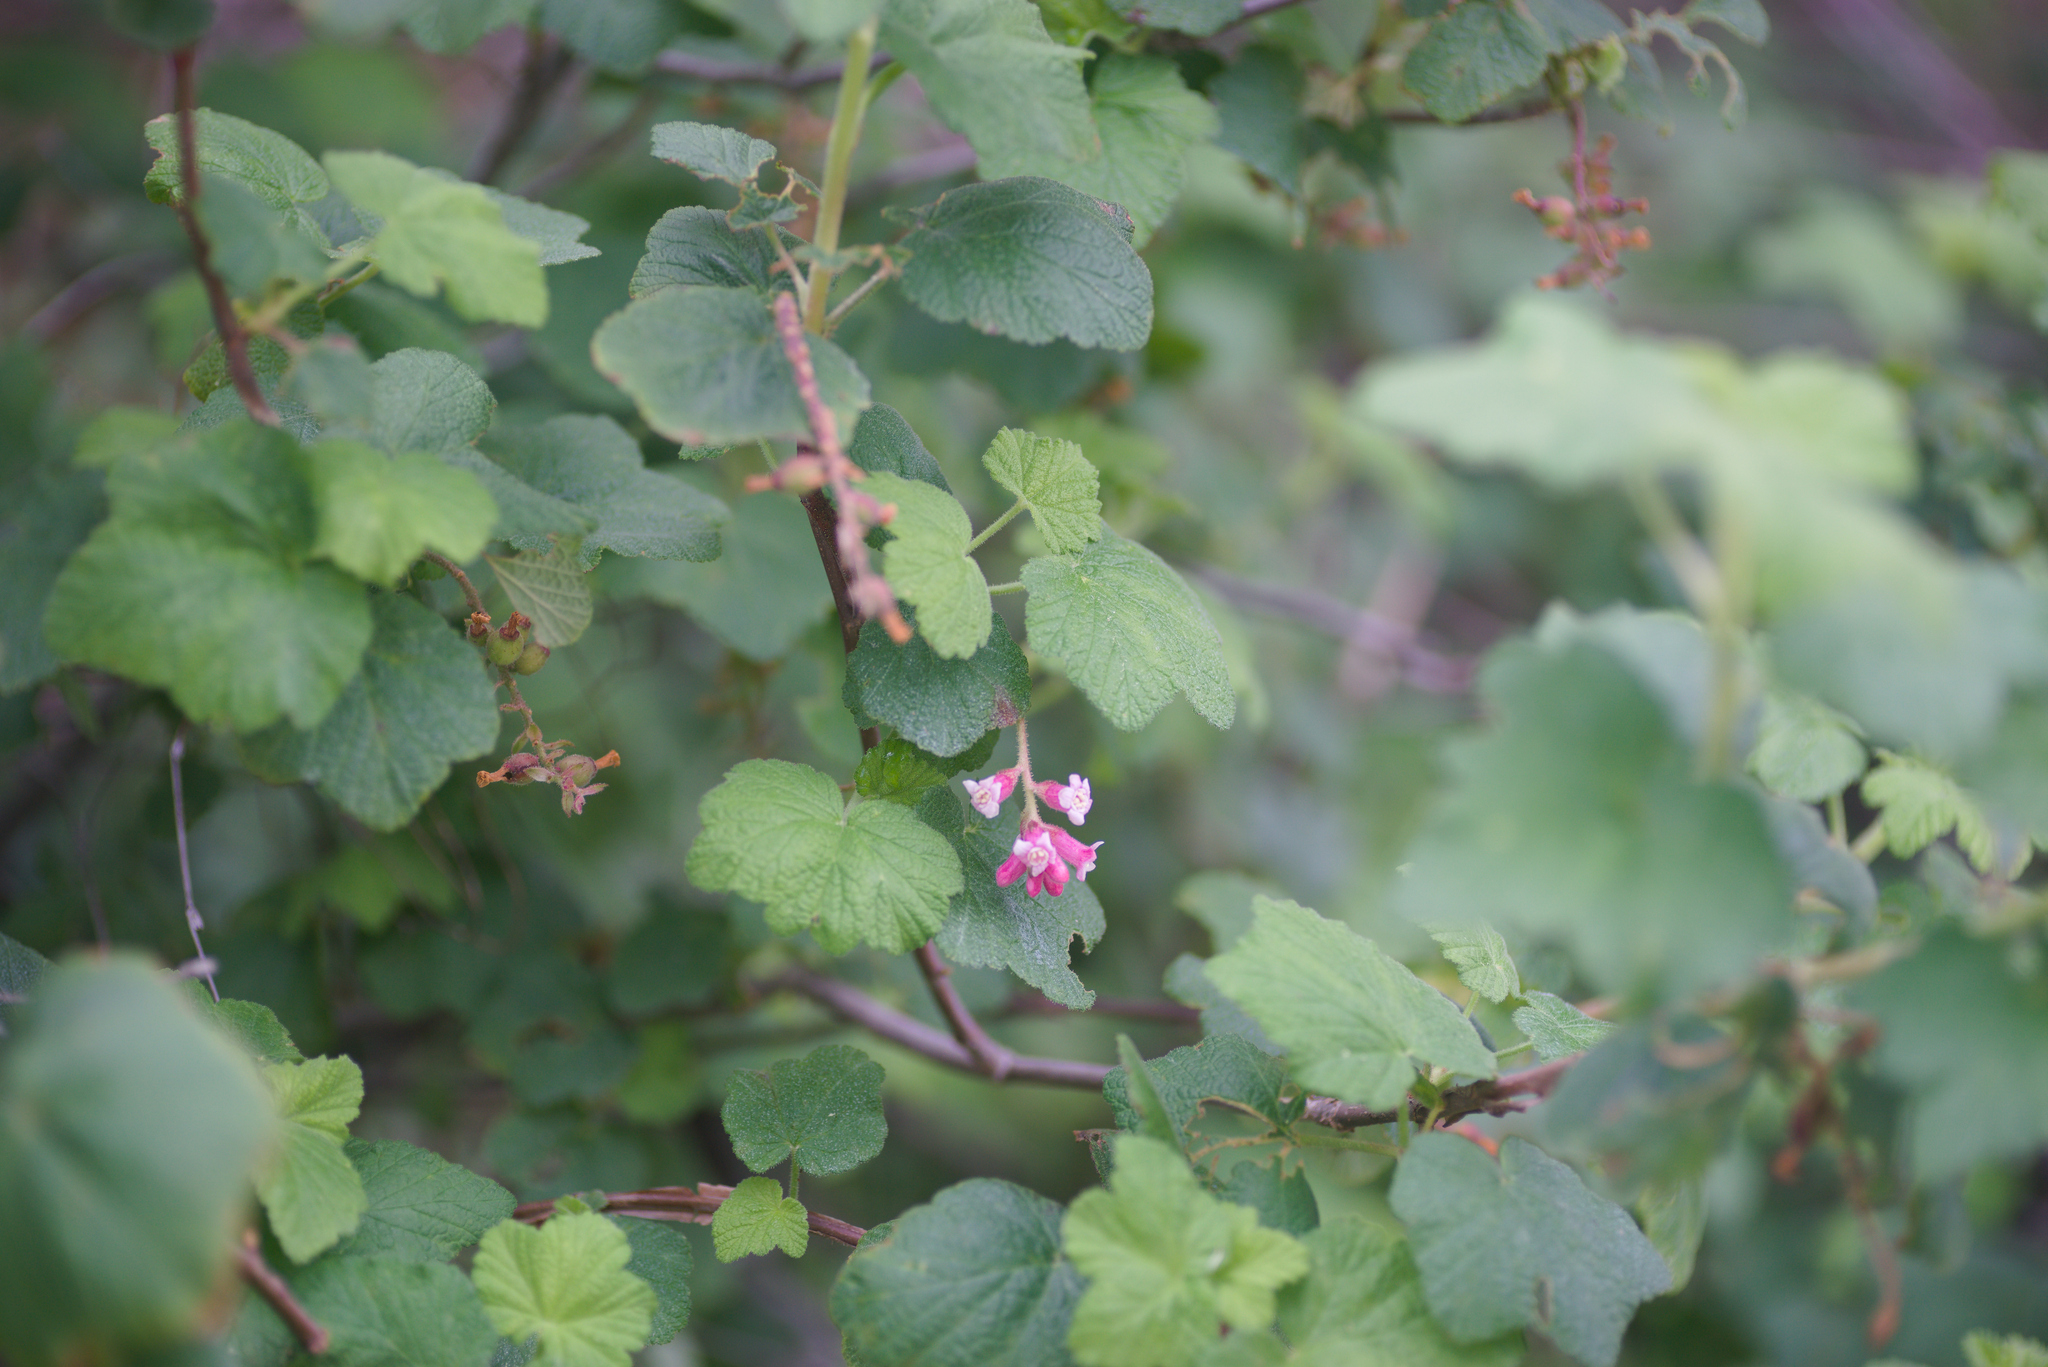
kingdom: Plantae
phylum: Tracheophyta
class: Magnoliopsida
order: Saxifragales
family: Grossulariaceae
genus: Ribes
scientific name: Ribes malvaceum
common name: Chaparral currant
